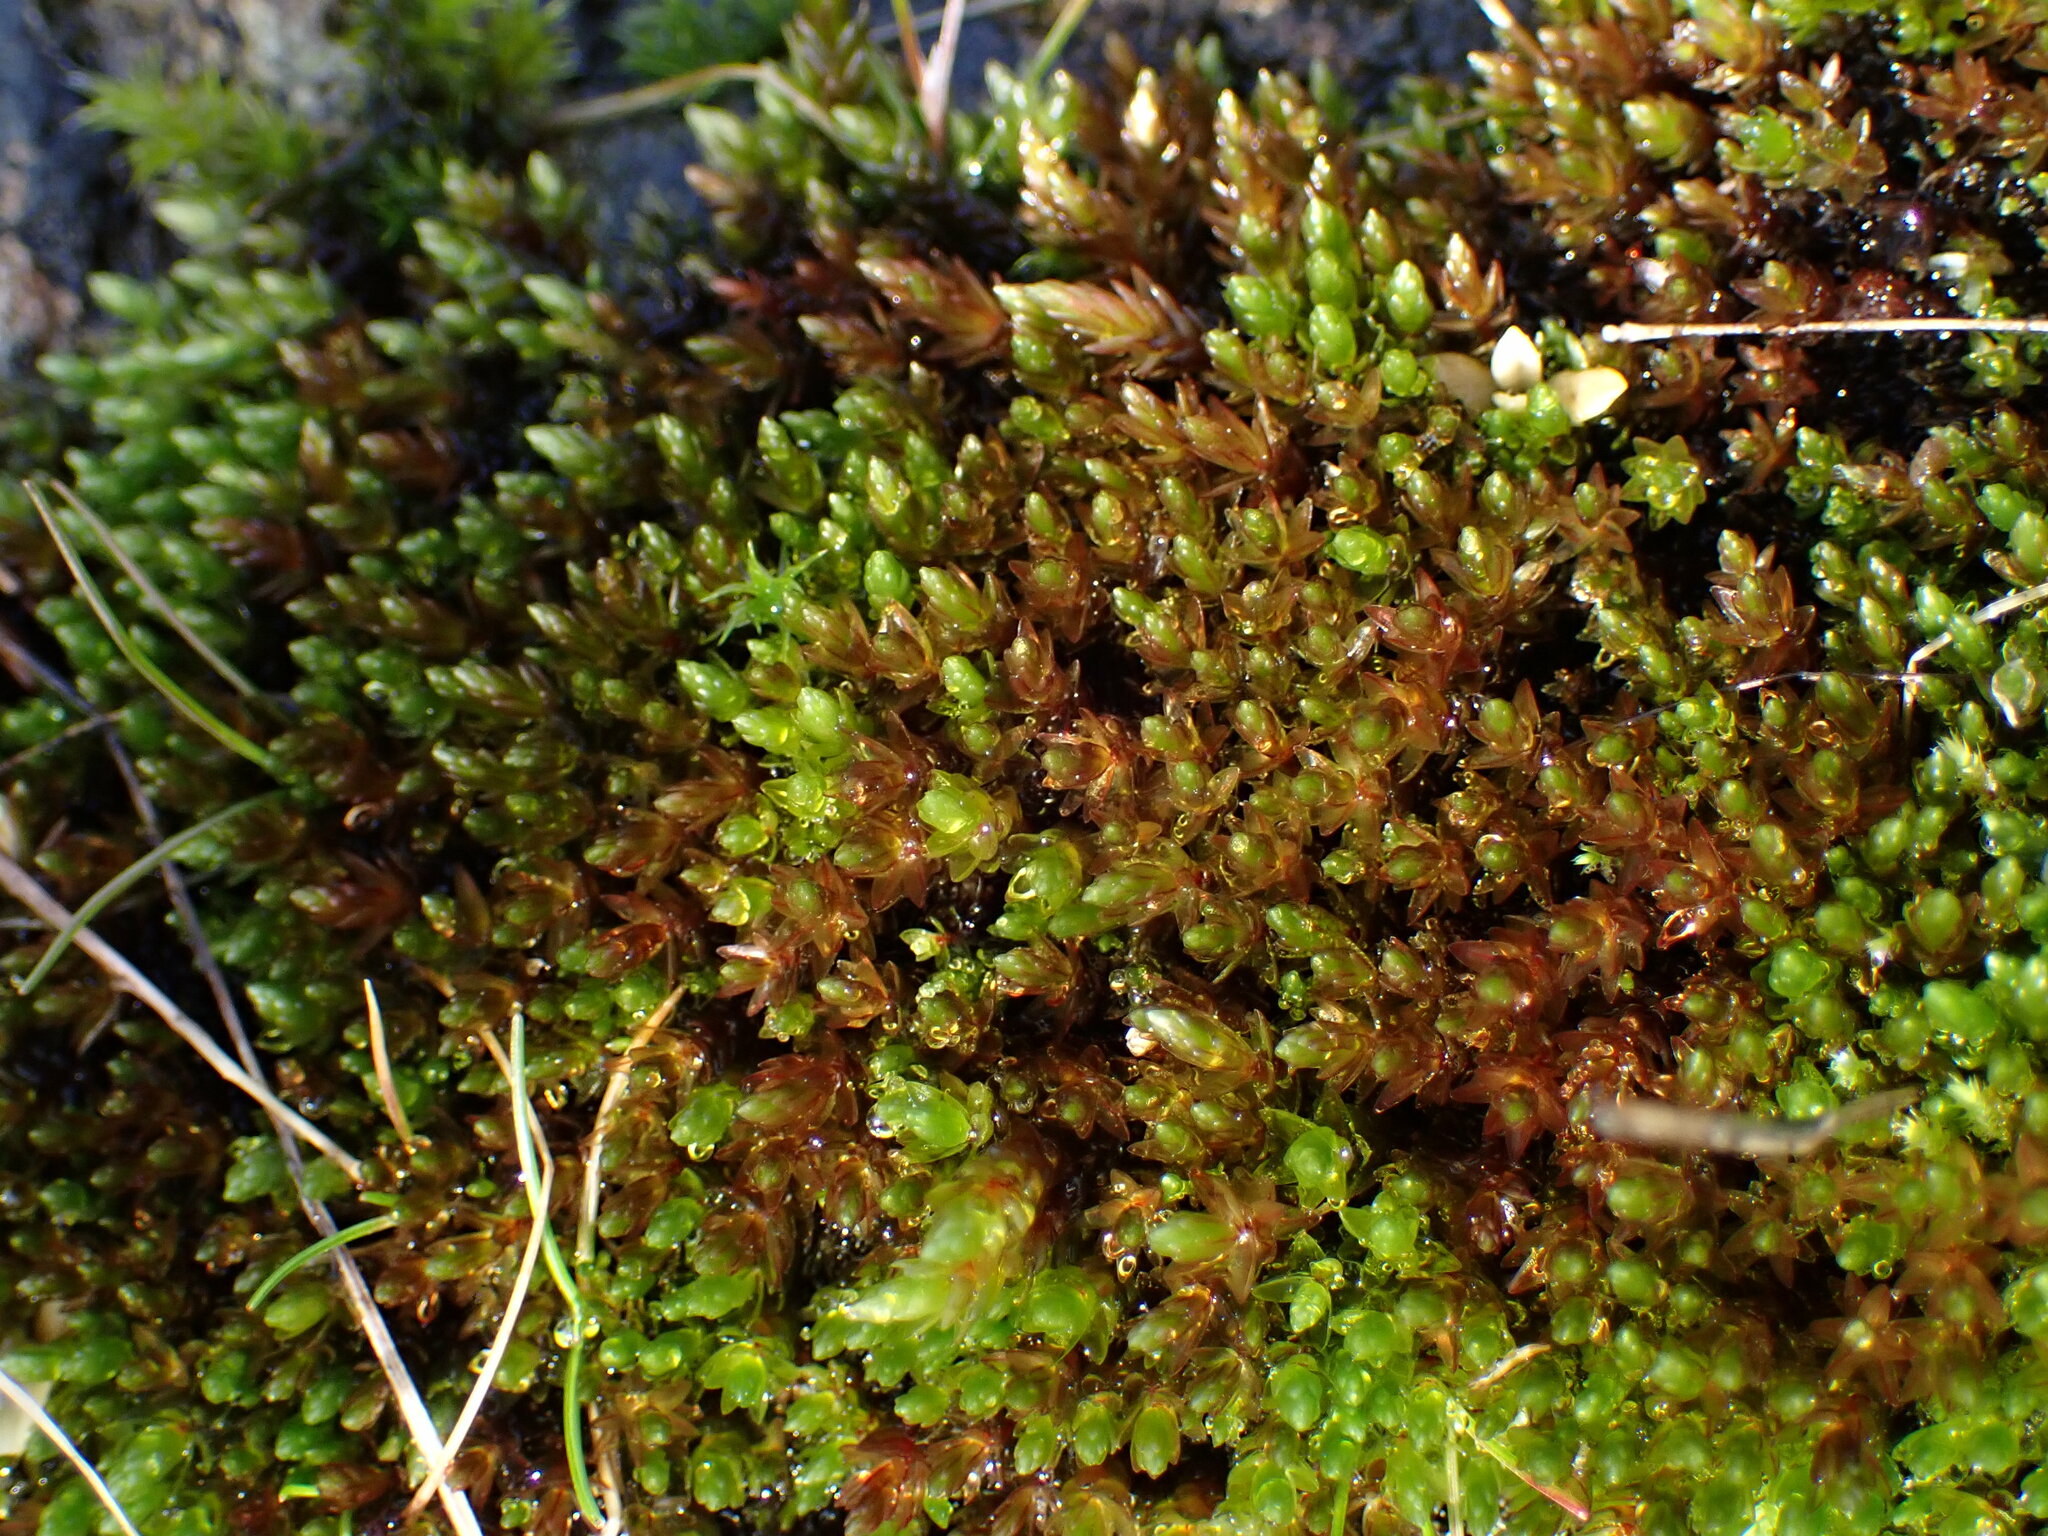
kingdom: Plantae
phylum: Bryophyta
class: Bryopsida
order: Bryales
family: Bryaceae
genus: Imbribryum
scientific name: Imbribryum miniatum
